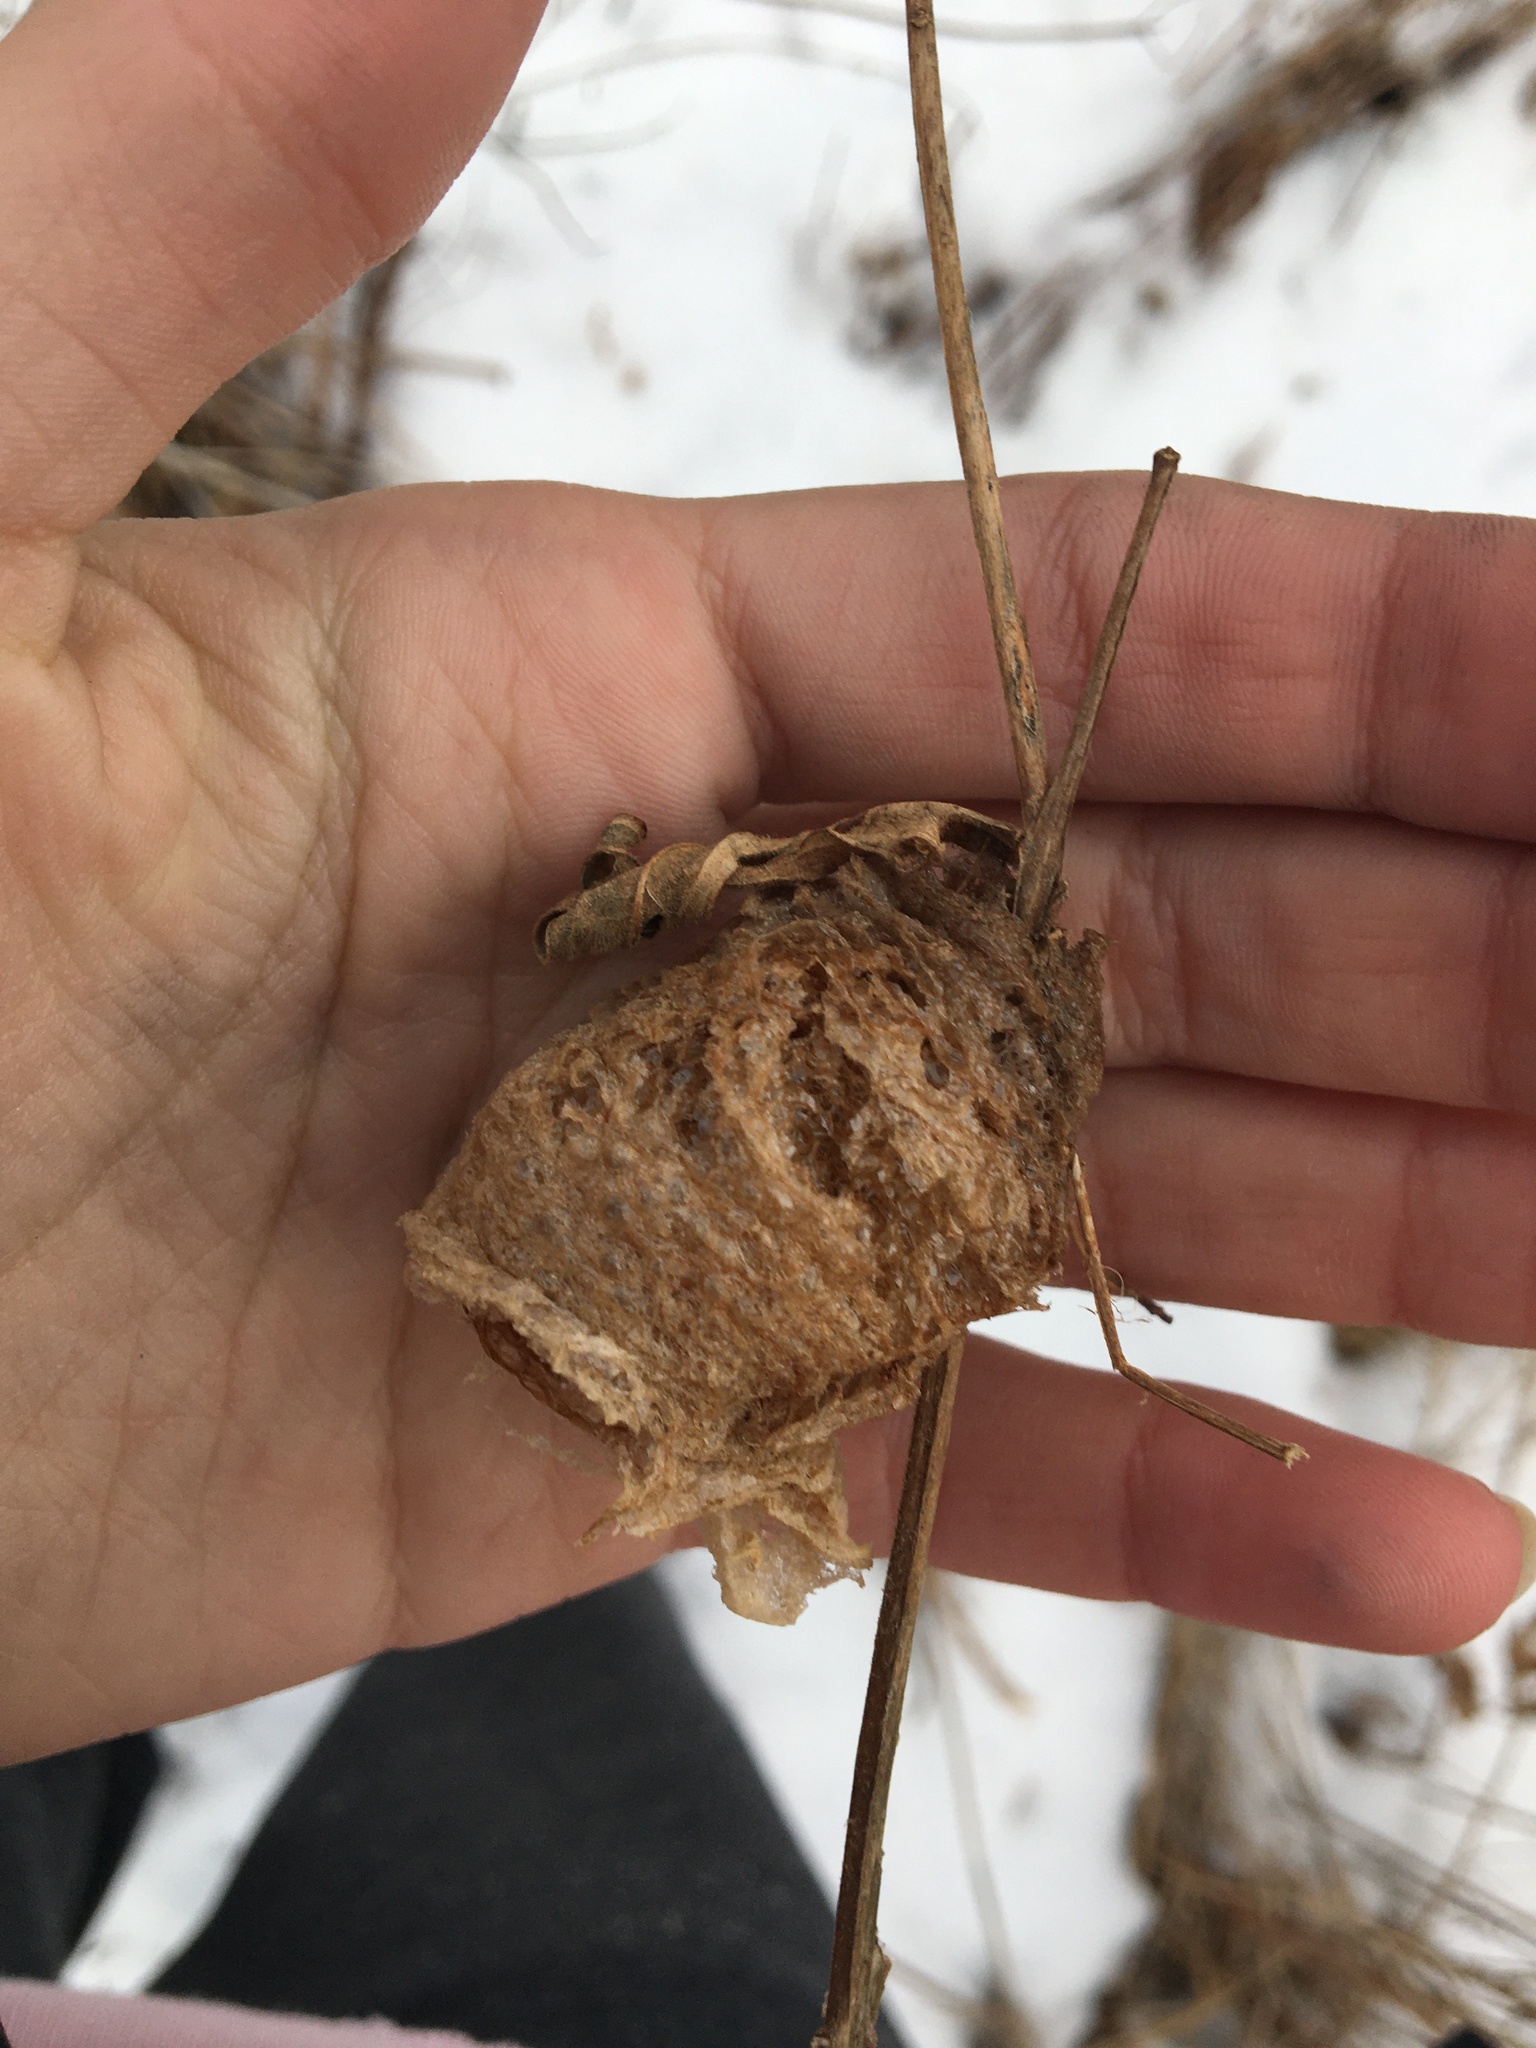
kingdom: Animalia
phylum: Arthropoda
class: Insecta
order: Mantodea
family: Mantidae
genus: Tenodera
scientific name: Tenodera sinensis
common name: Chinese mantis
